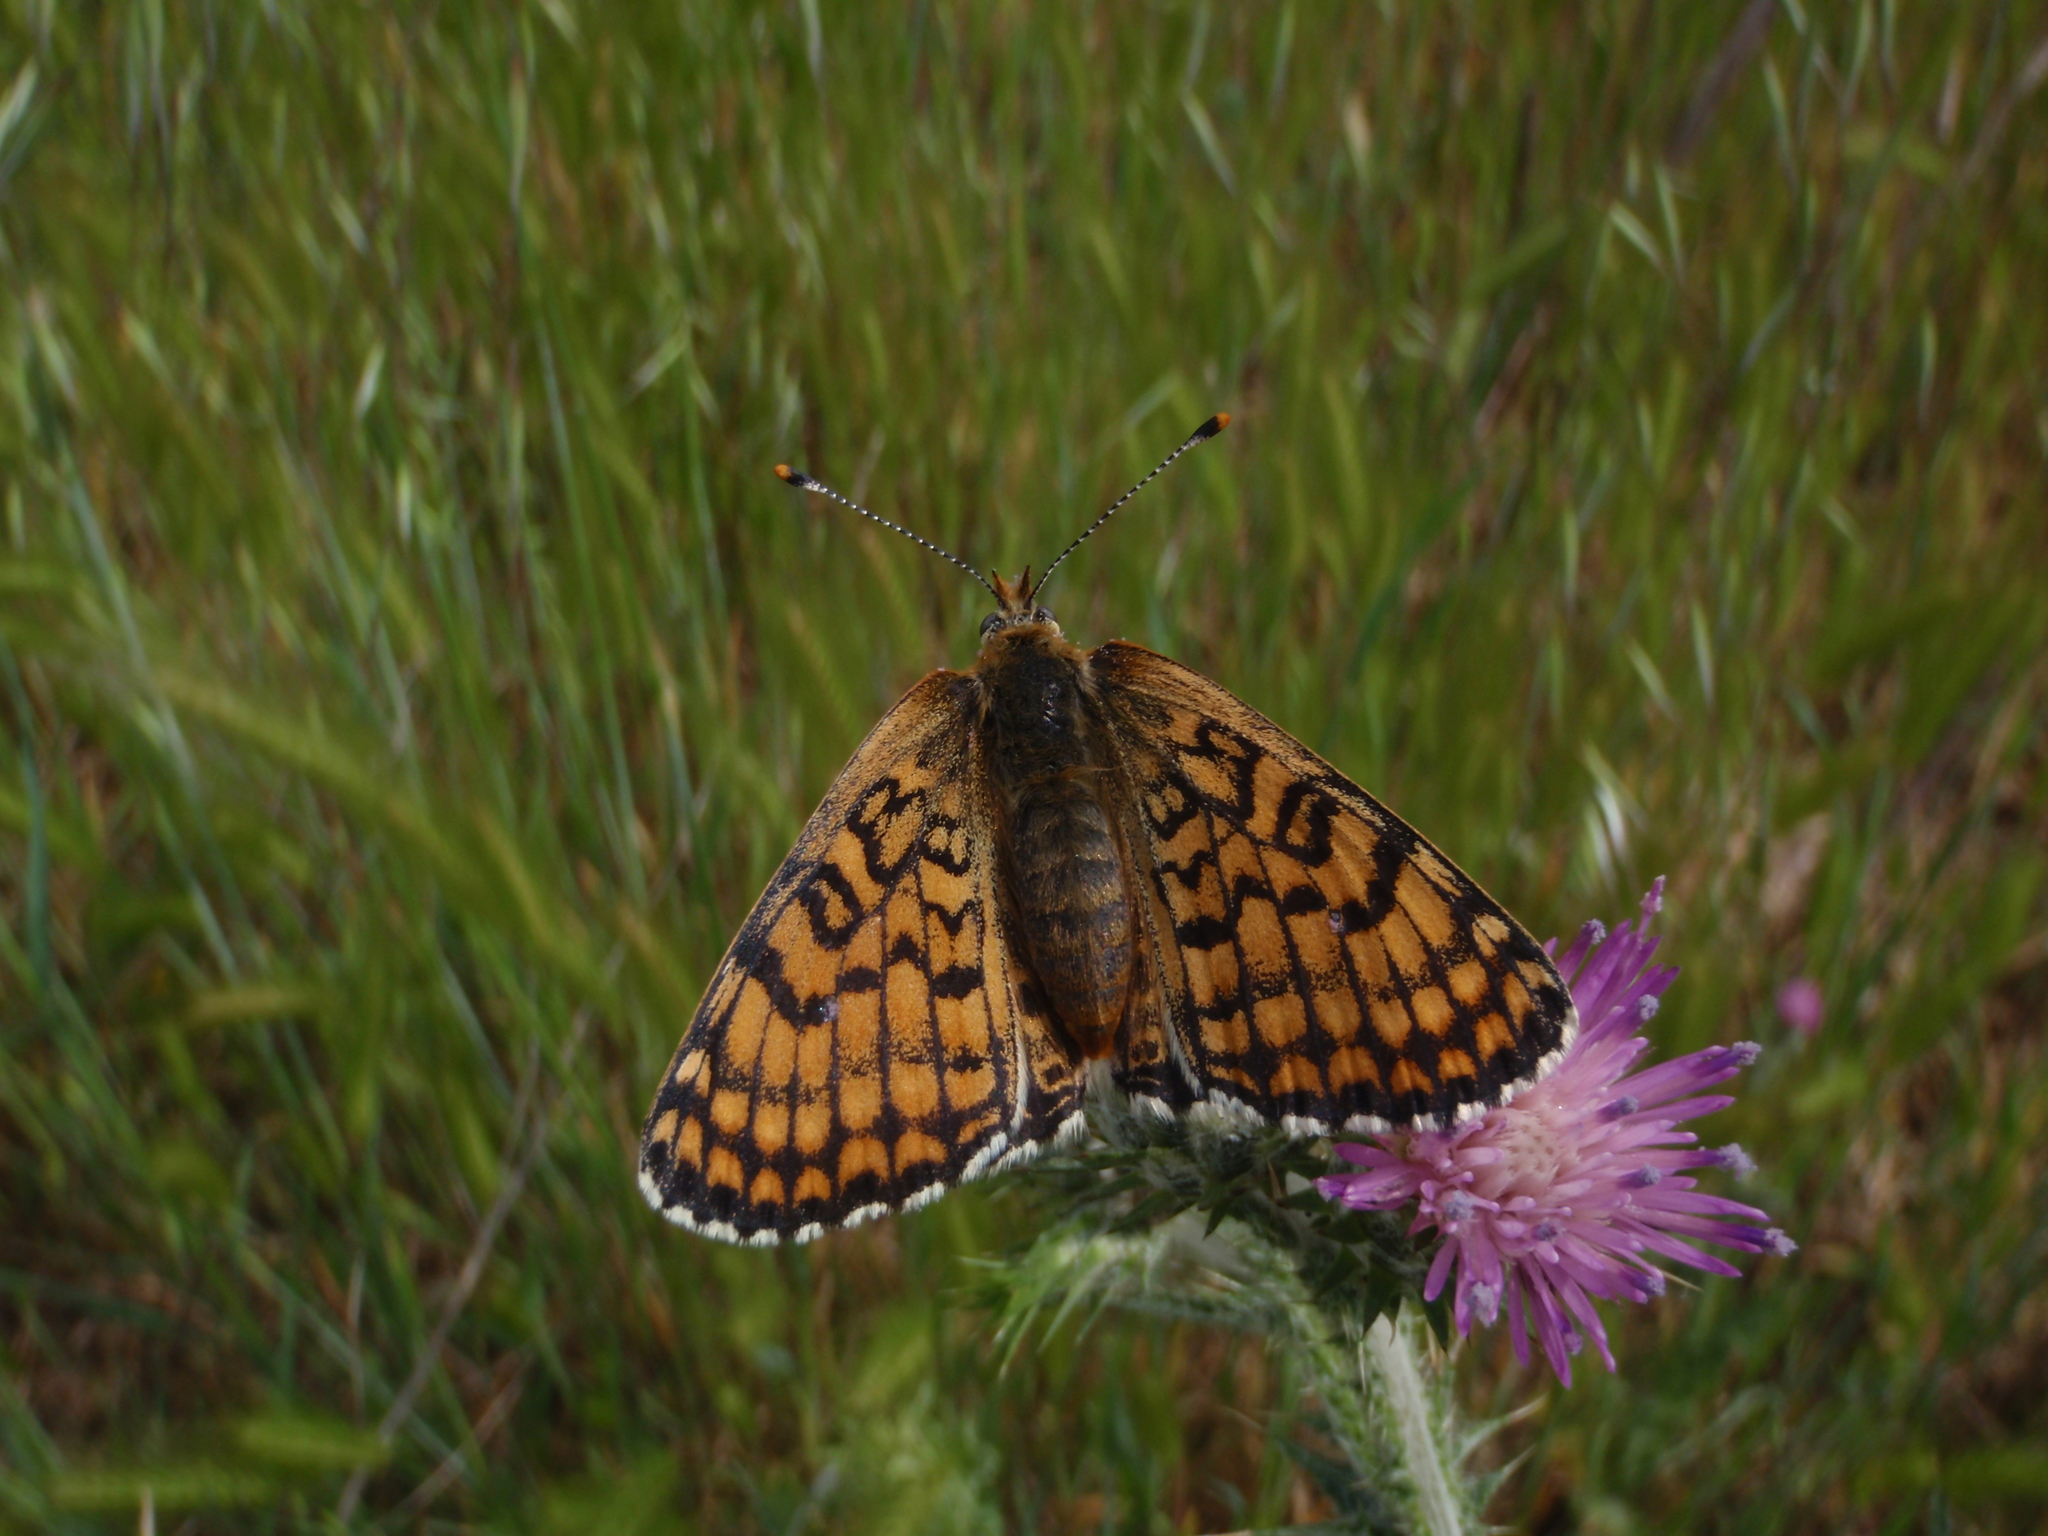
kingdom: Animalia
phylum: Arthropoda
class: Insecta
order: Lepidoptera
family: Nymphalidae
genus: Melitaea
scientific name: Melitaea cinxia
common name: Glanville fritillary
